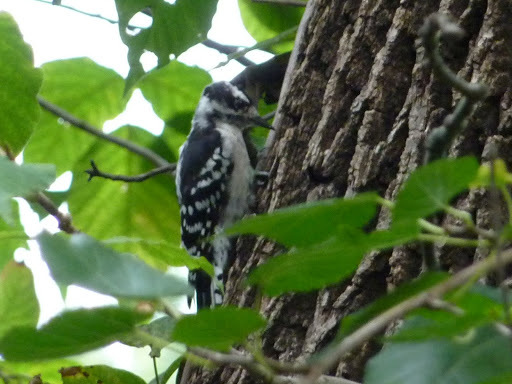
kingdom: Animalia
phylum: Chordata
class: Aves
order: Piciformes
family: Picidae
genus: Dryobates
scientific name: Dryobates pubescens
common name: Downy woodpecker
